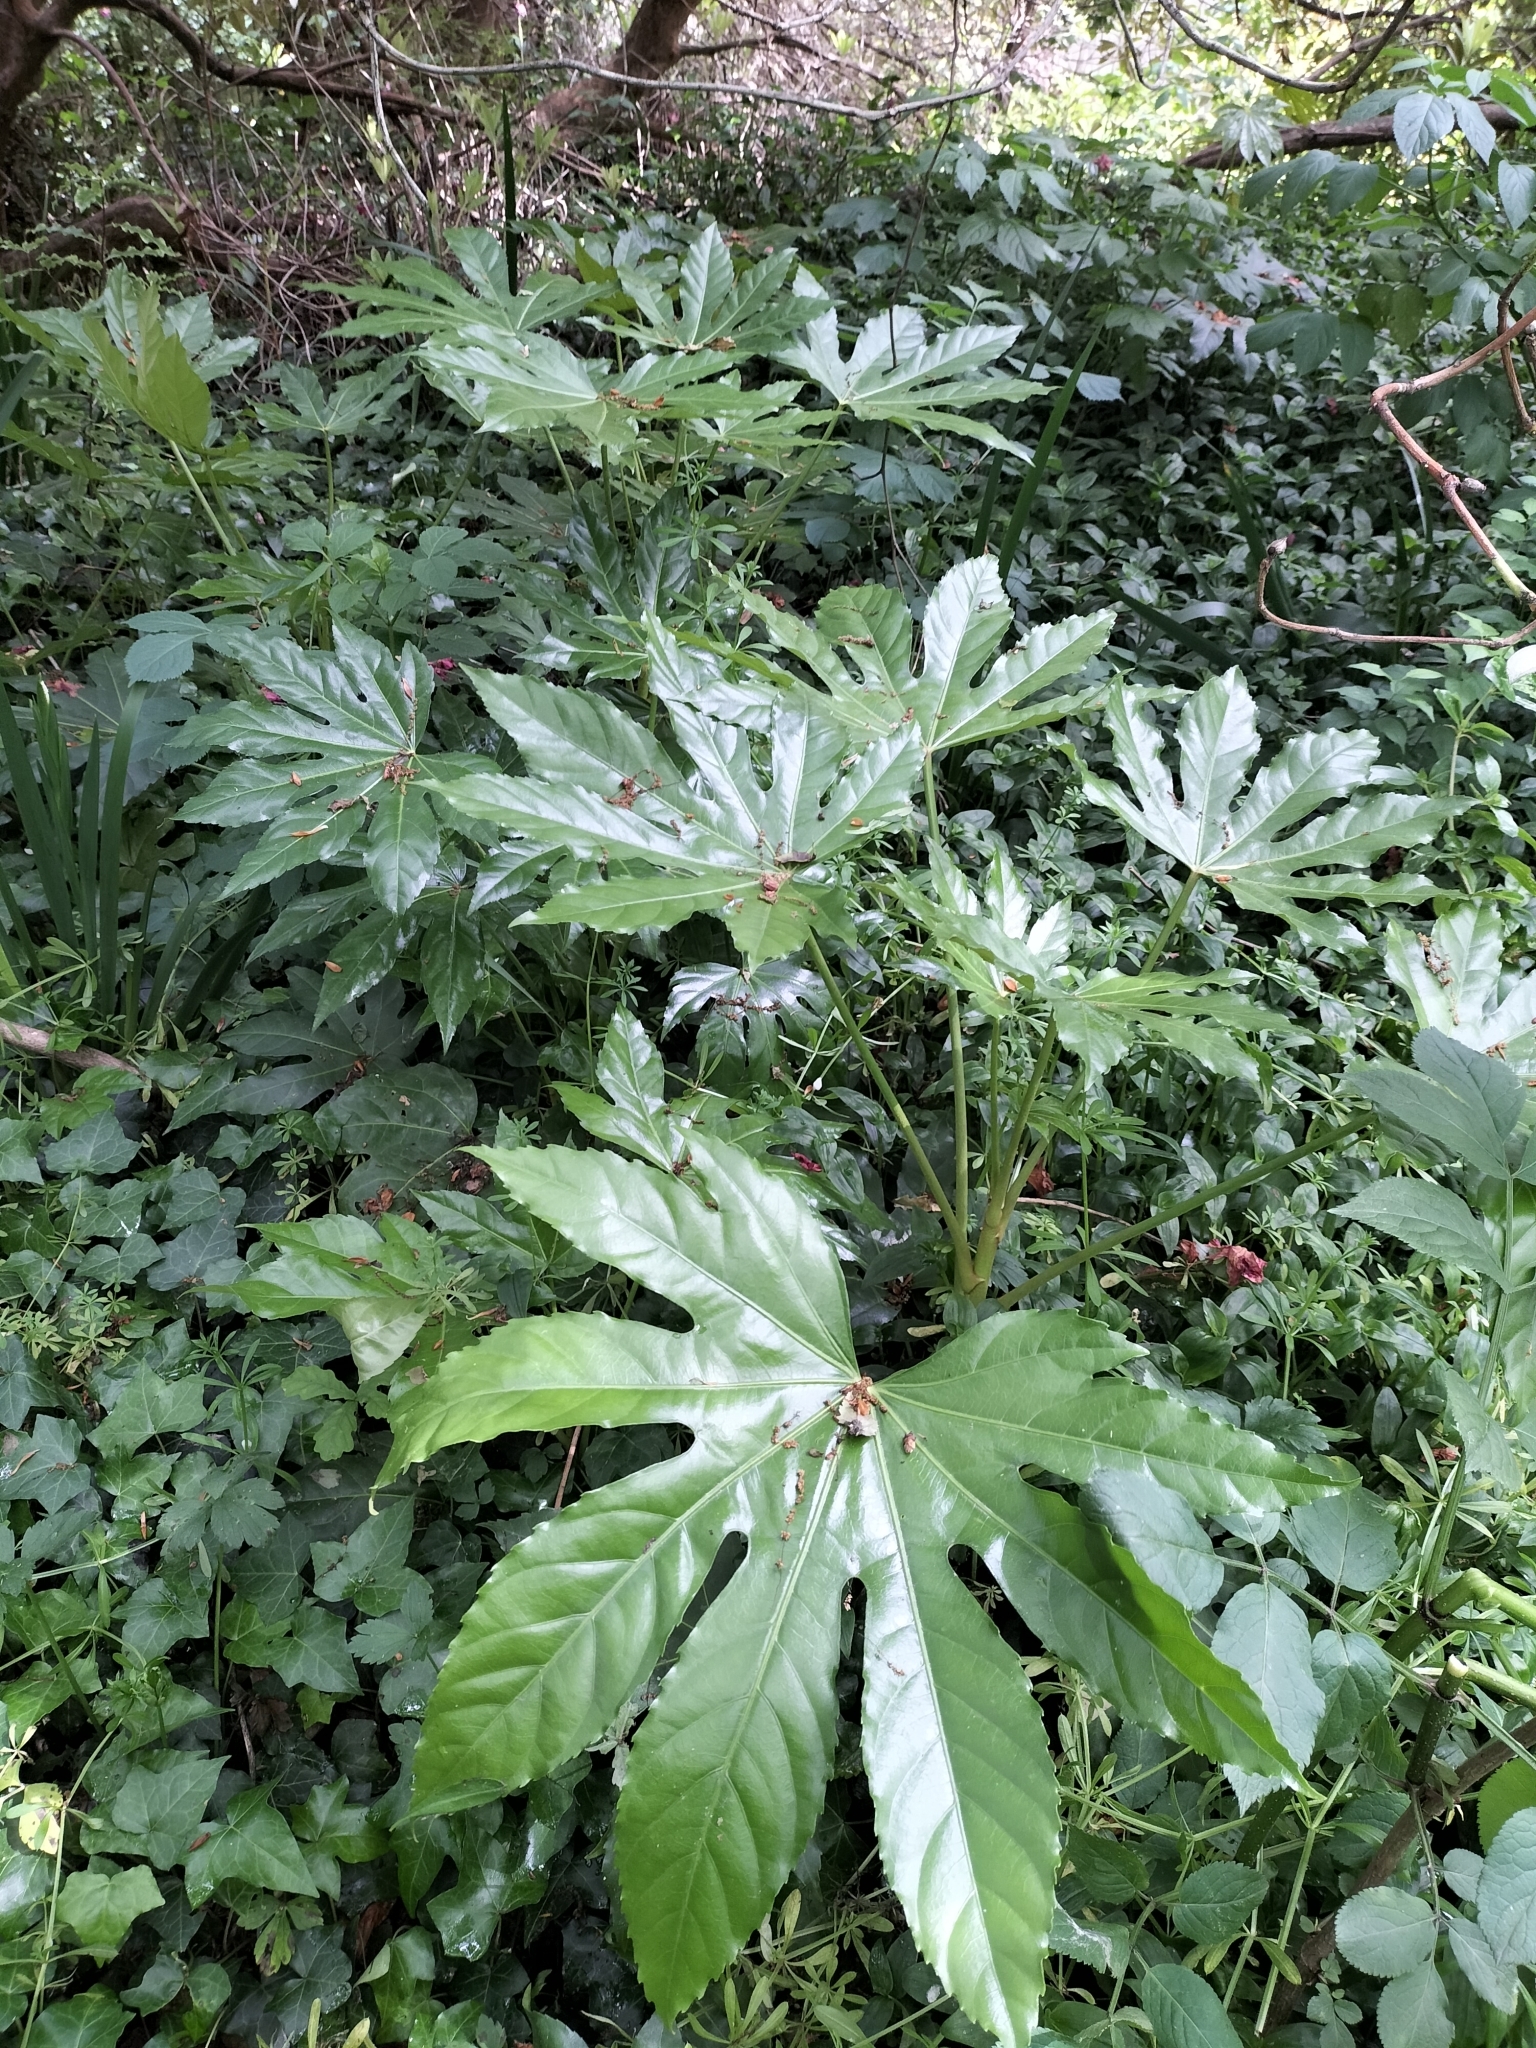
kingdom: Plantae
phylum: Tracheophyta
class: Magnoliopsida
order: Apiales
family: Araliaceae
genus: Fatsia
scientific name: Fatsia japonica
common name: Fatsia
